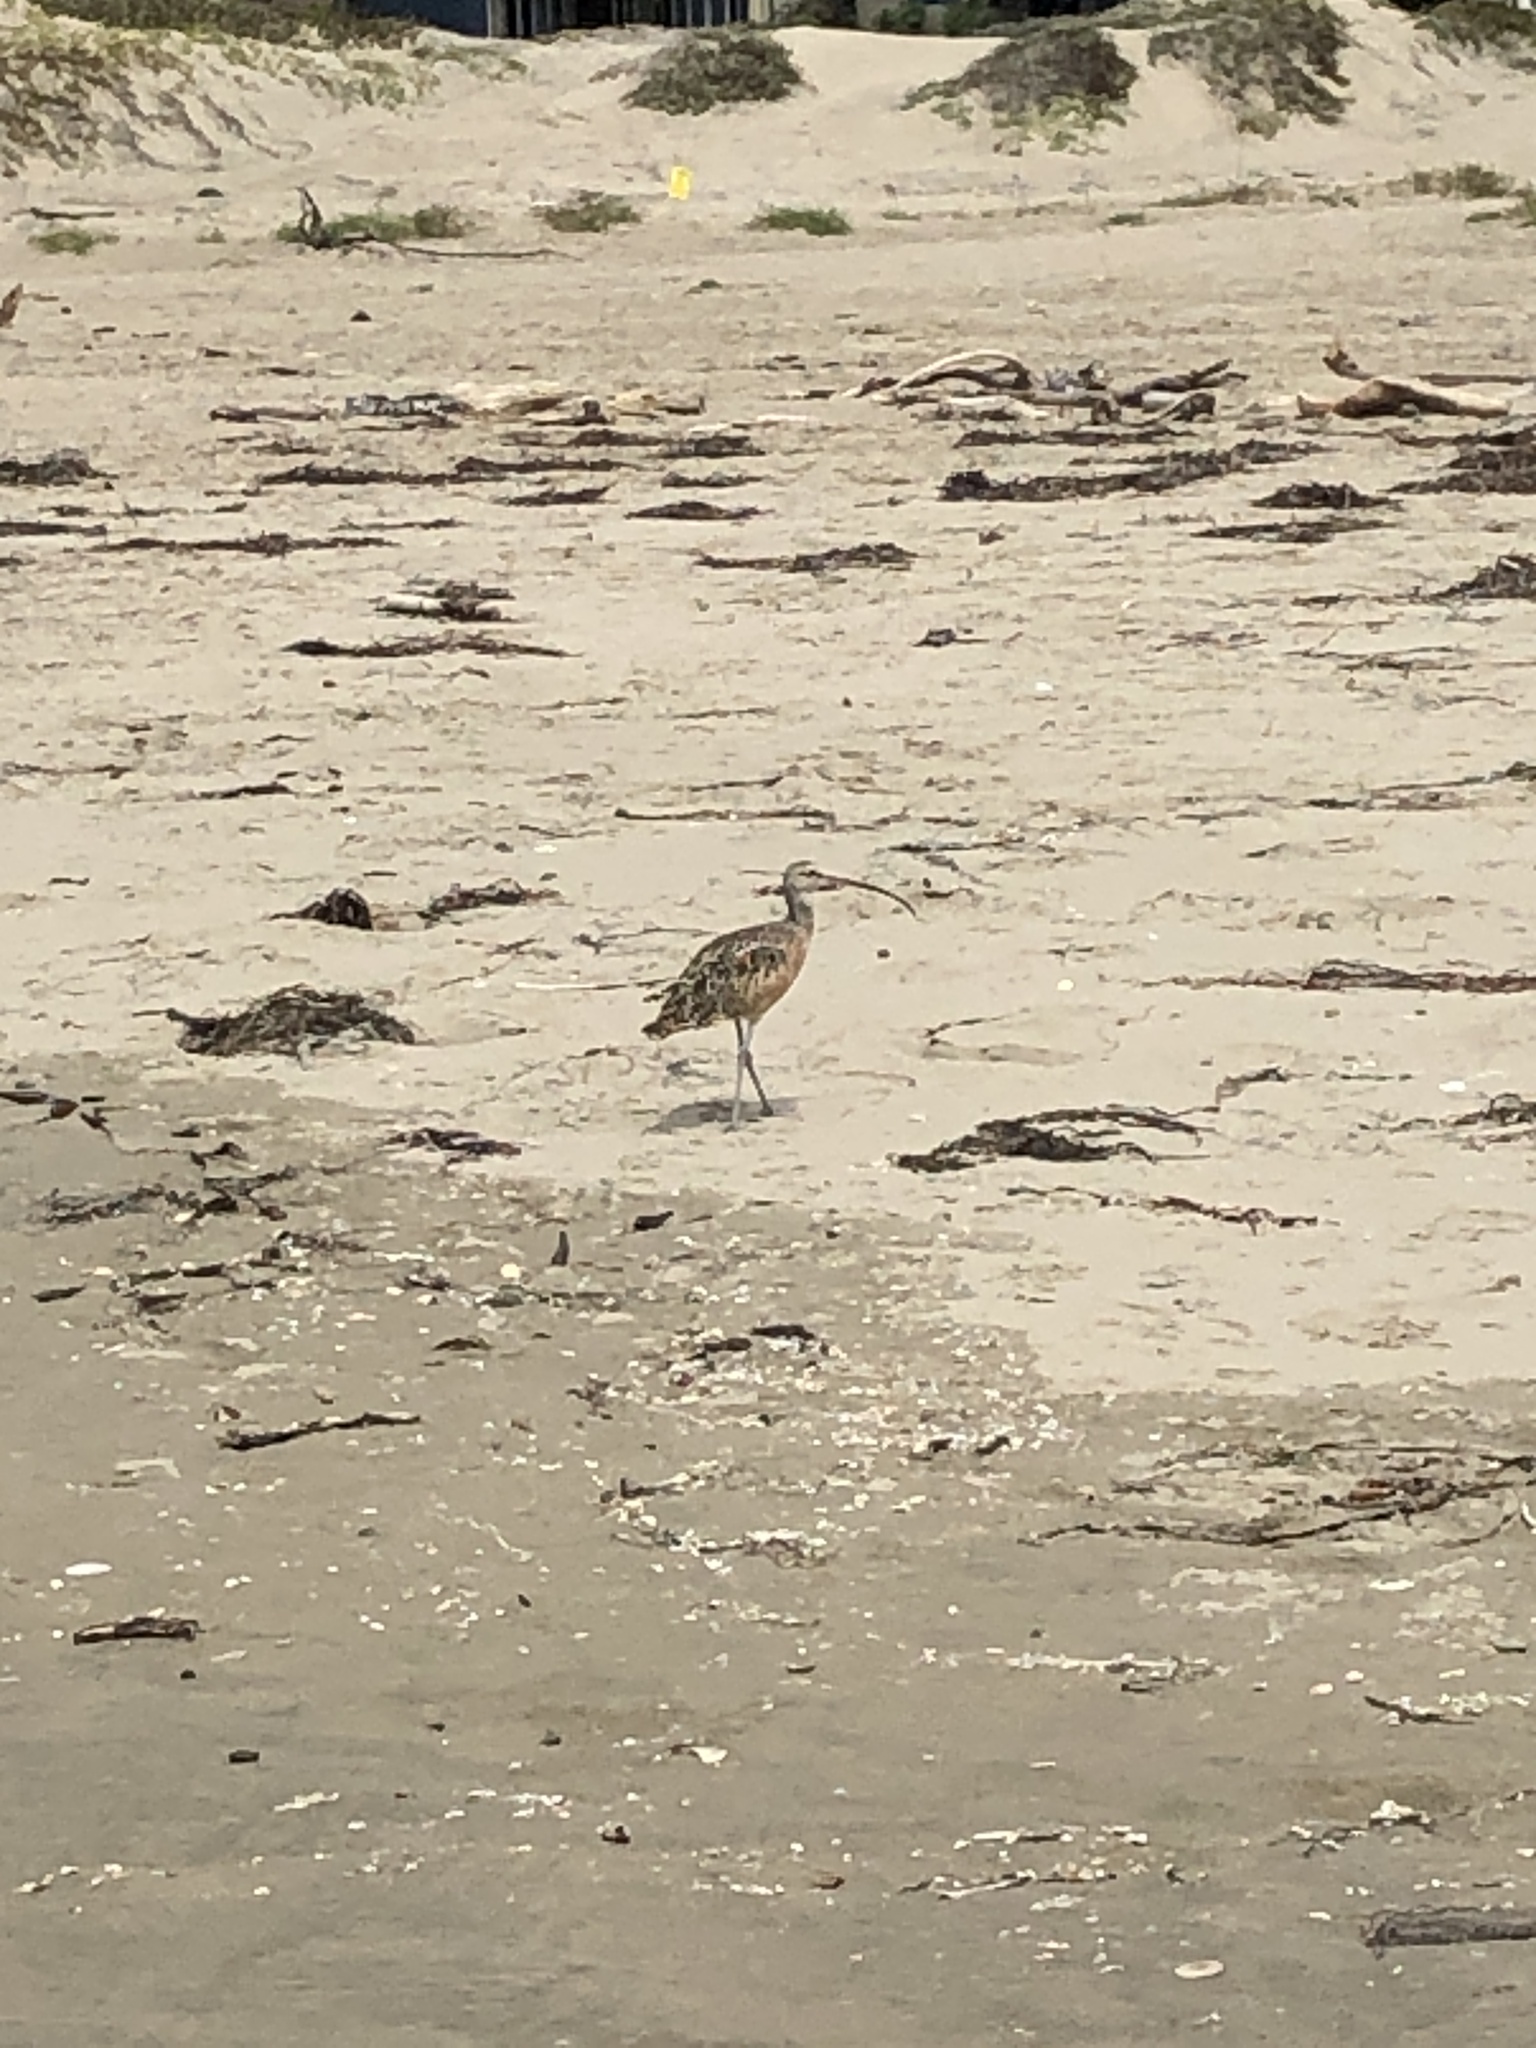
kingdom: Animalia
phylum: Chordata
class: Aves
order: Charadriiformes
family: Scolopacidae
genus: Numenius
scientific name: Numenius americanus
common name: Long-billed curlew
